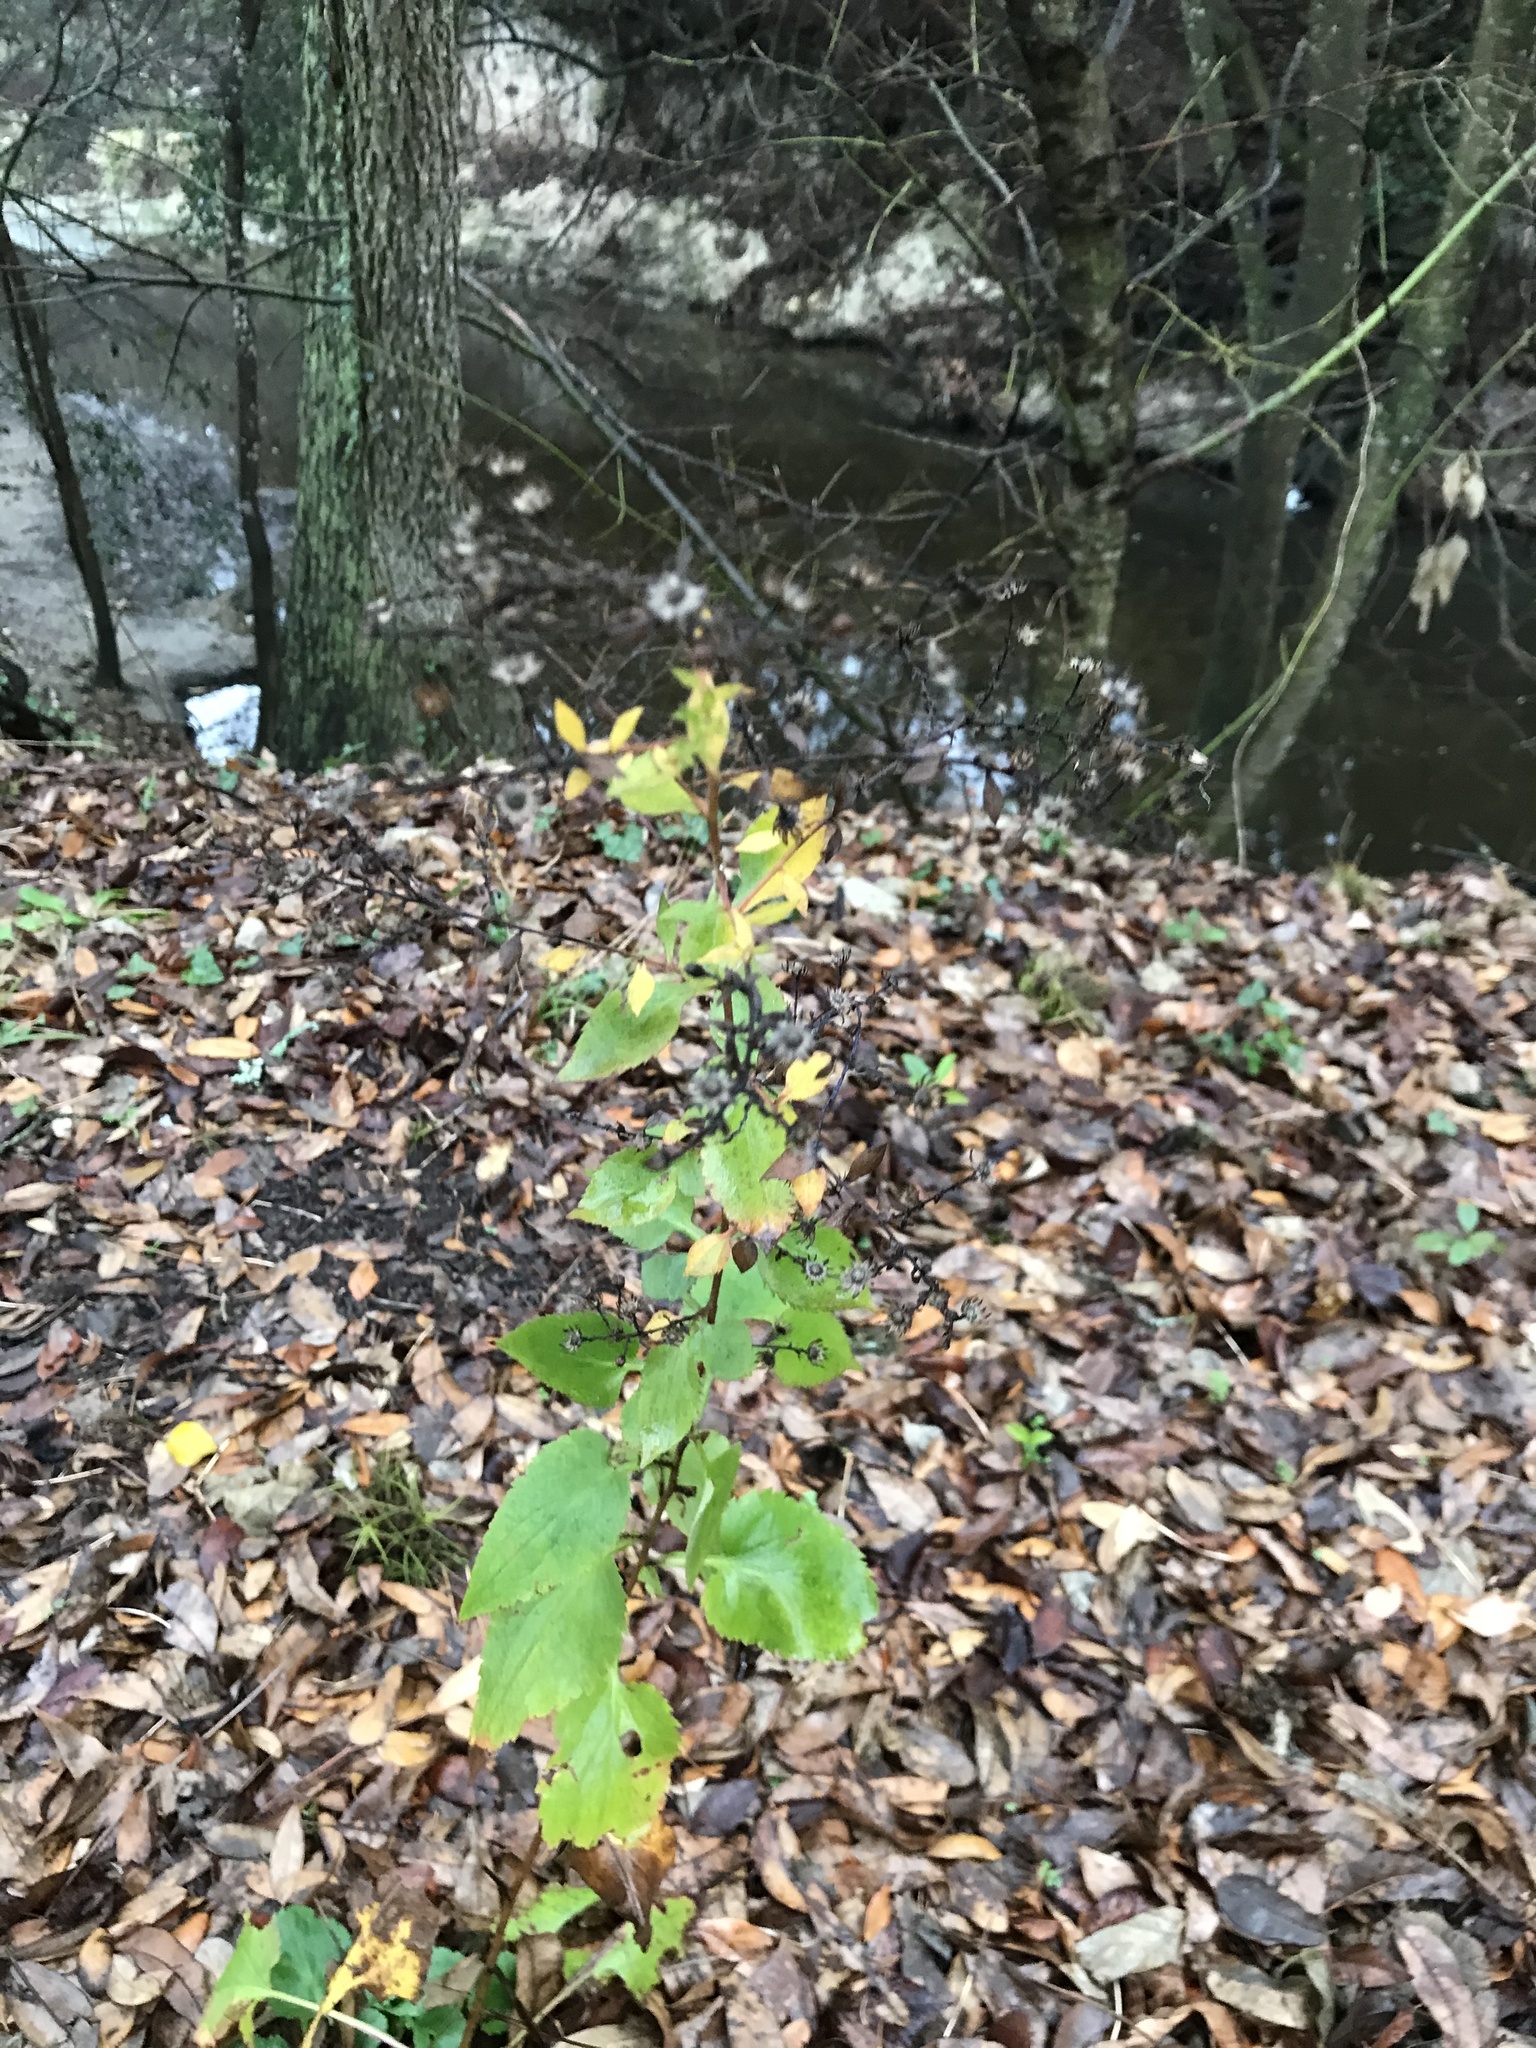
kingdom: Plantae
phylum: Tracheophyta
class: Magnoliopsida
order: Asterales
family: Asteraceae
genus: Symphyotrichum
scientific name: Symphyotrichum drummondii
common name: Drummond's aster
